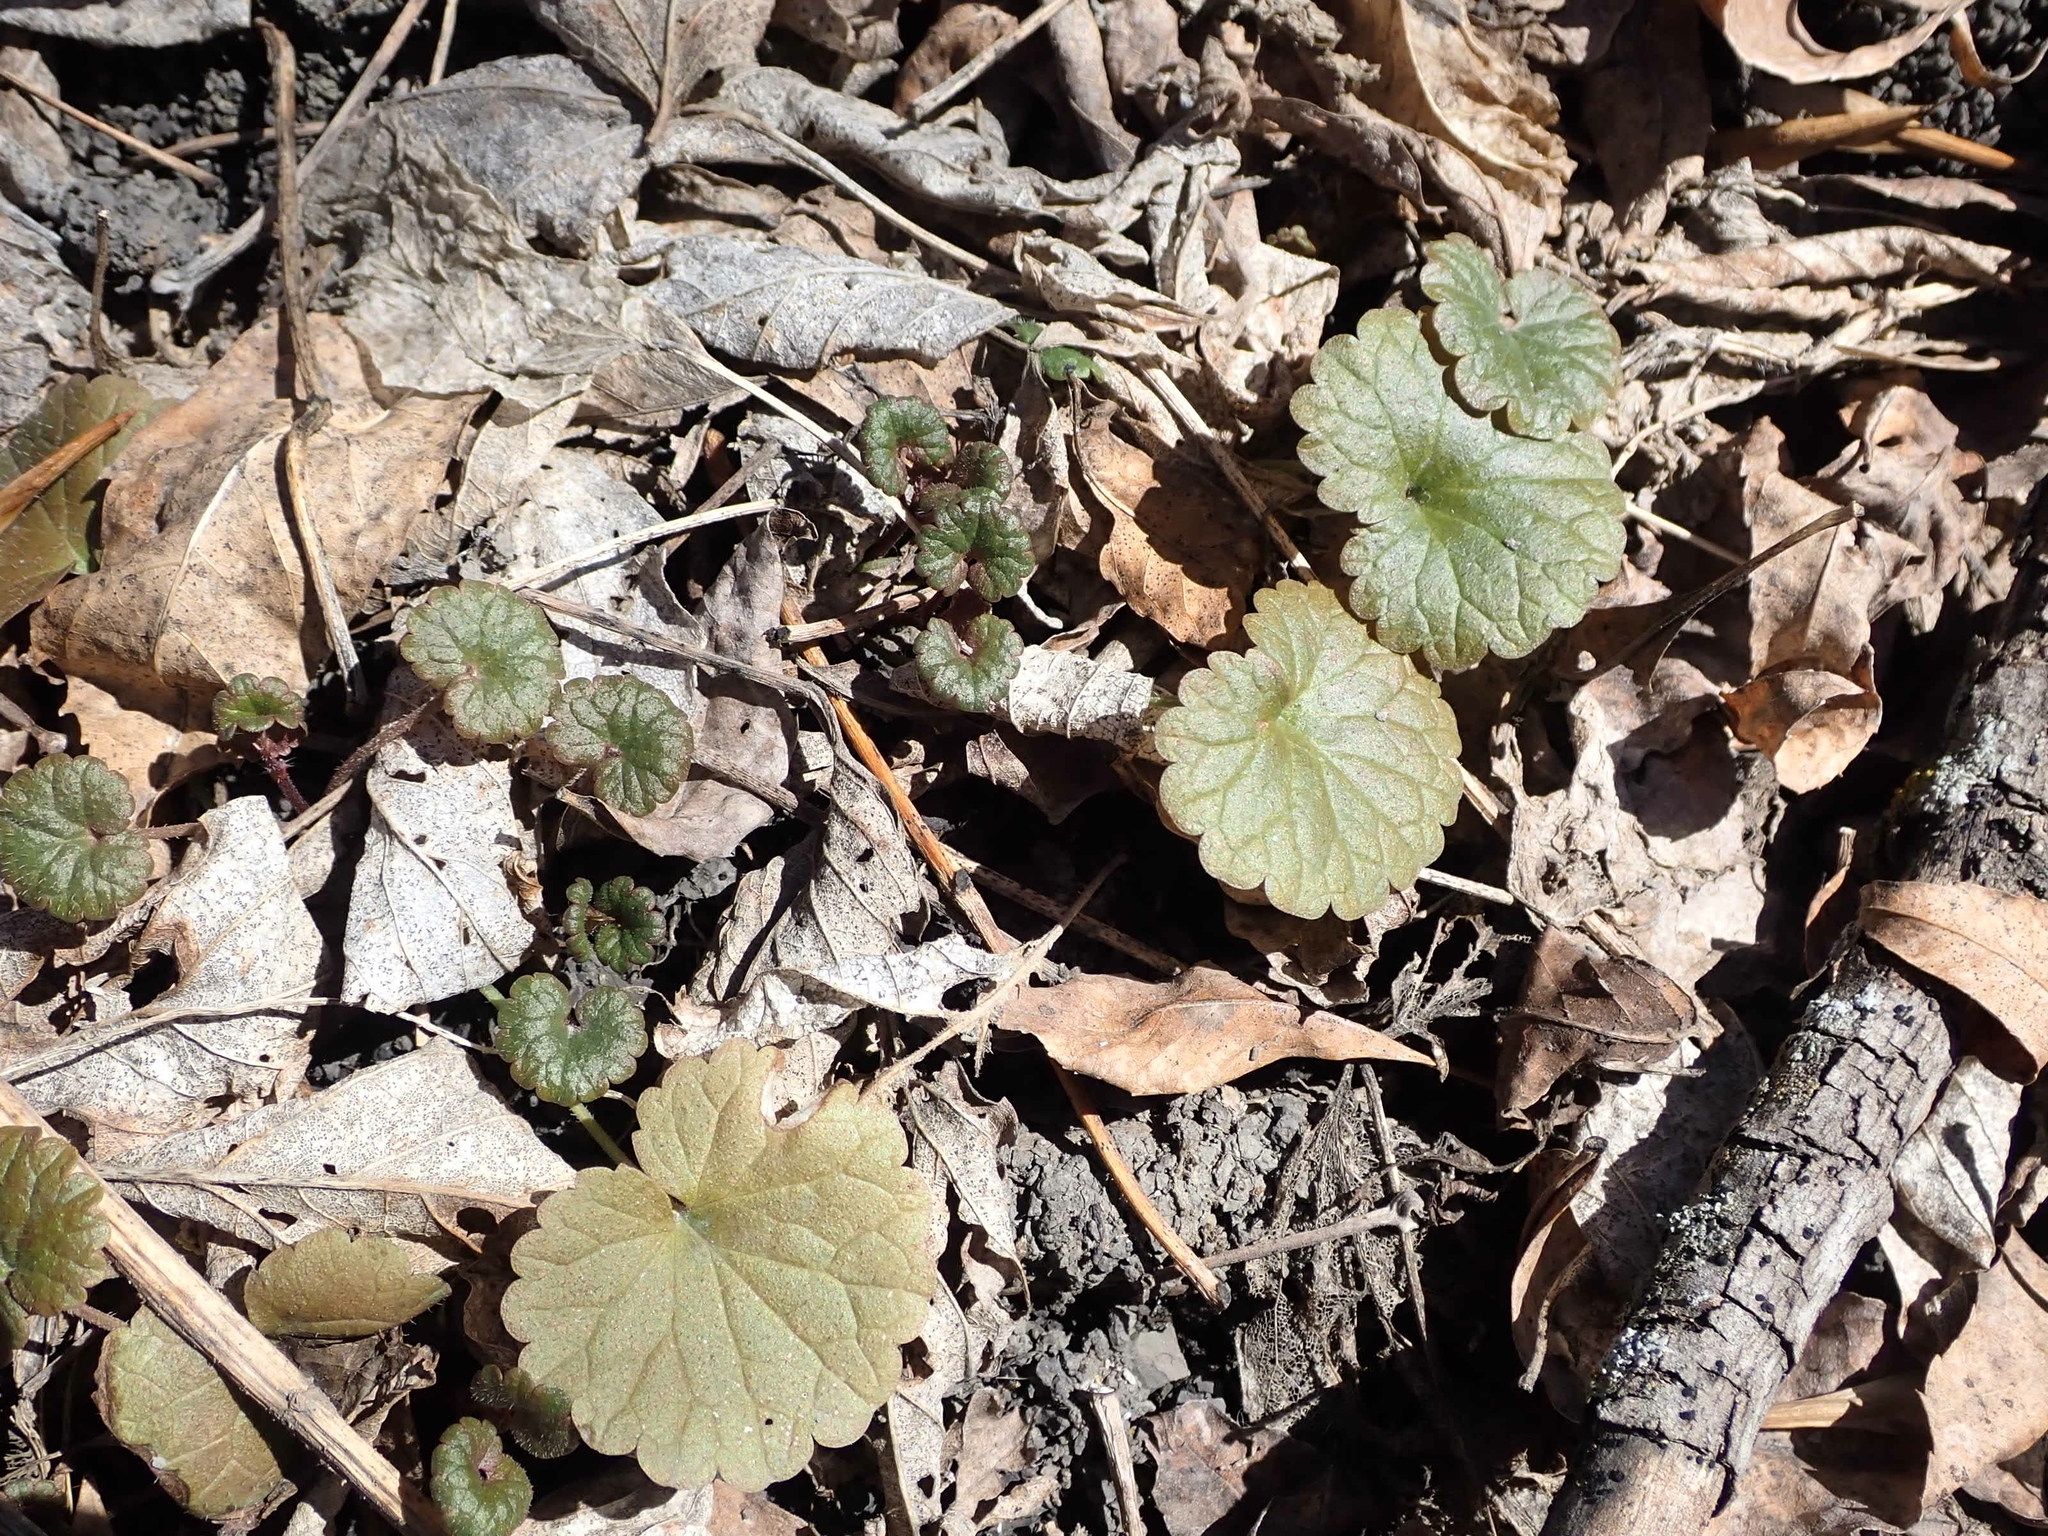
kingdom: Plantae
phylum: Tracheophyta
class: Magnoliopsida
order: Lamiales
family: Lamiaceae
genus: Glechoma
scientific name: Glechoma hederacea
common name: Ground ivy
